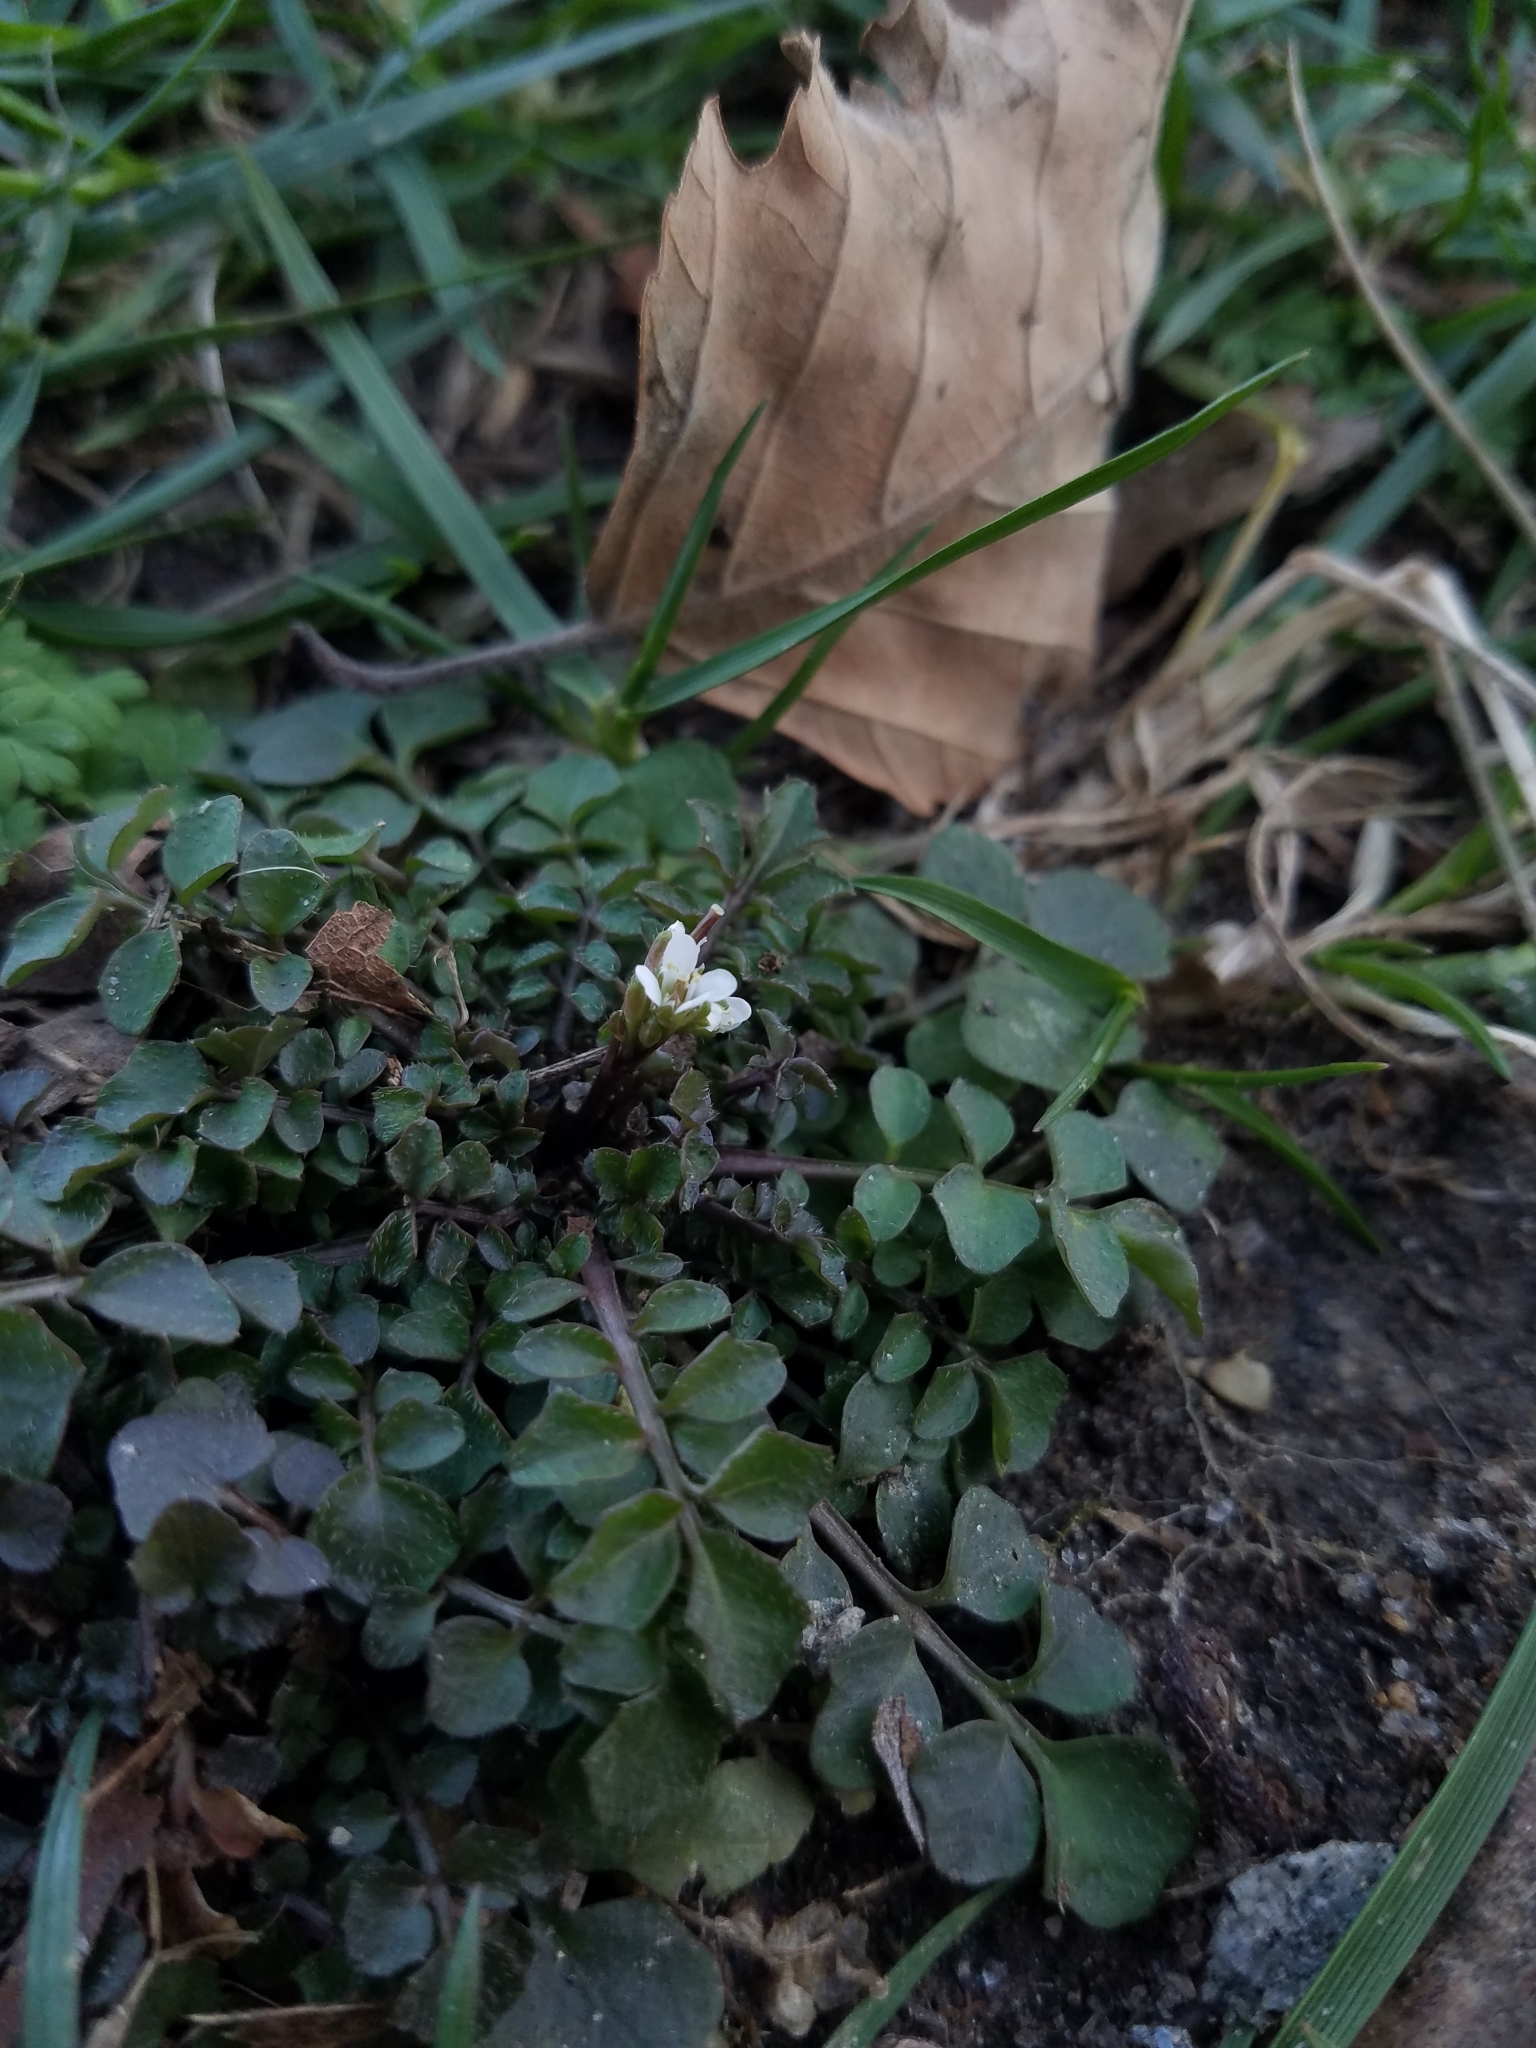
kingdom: Plantae
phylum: Tracheophyta
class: Magnoliopsida
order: Brassicales
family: Brassicaceae
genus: Cardamine
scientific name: Cardamine hirsuta
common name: Hairy bittercress
